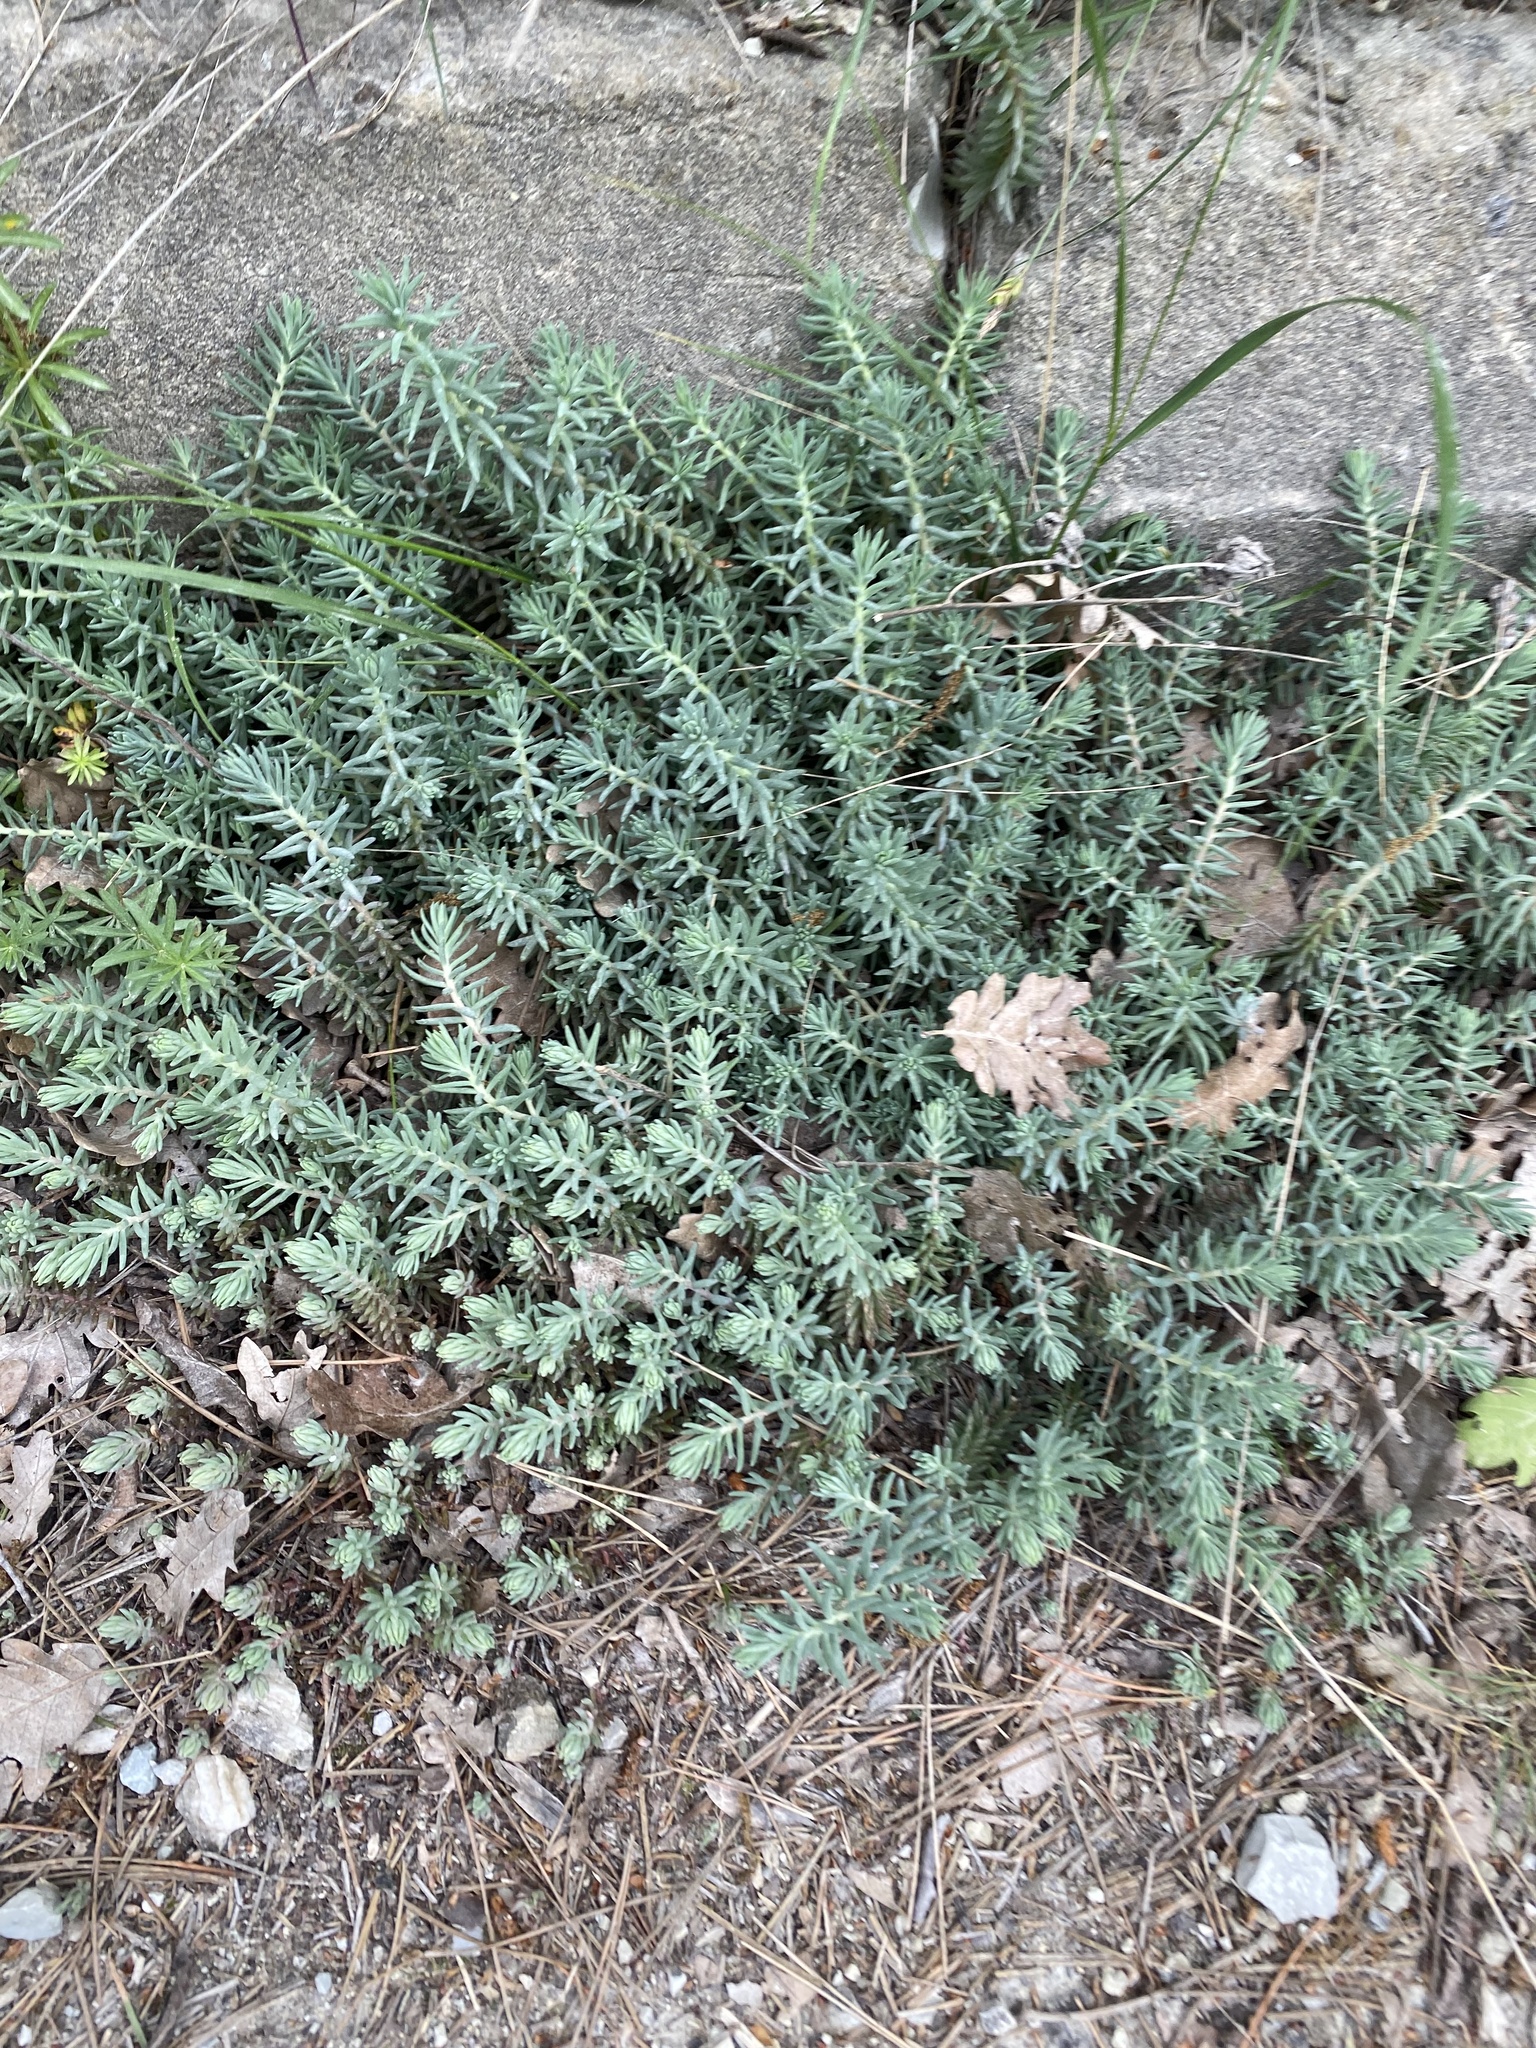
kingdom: Plantae
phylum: Tracheophyta
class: Magnoliopsida
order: Saxifragales
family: Crassulaceae
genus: Petrosedum
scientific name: Petrosedum orientale
